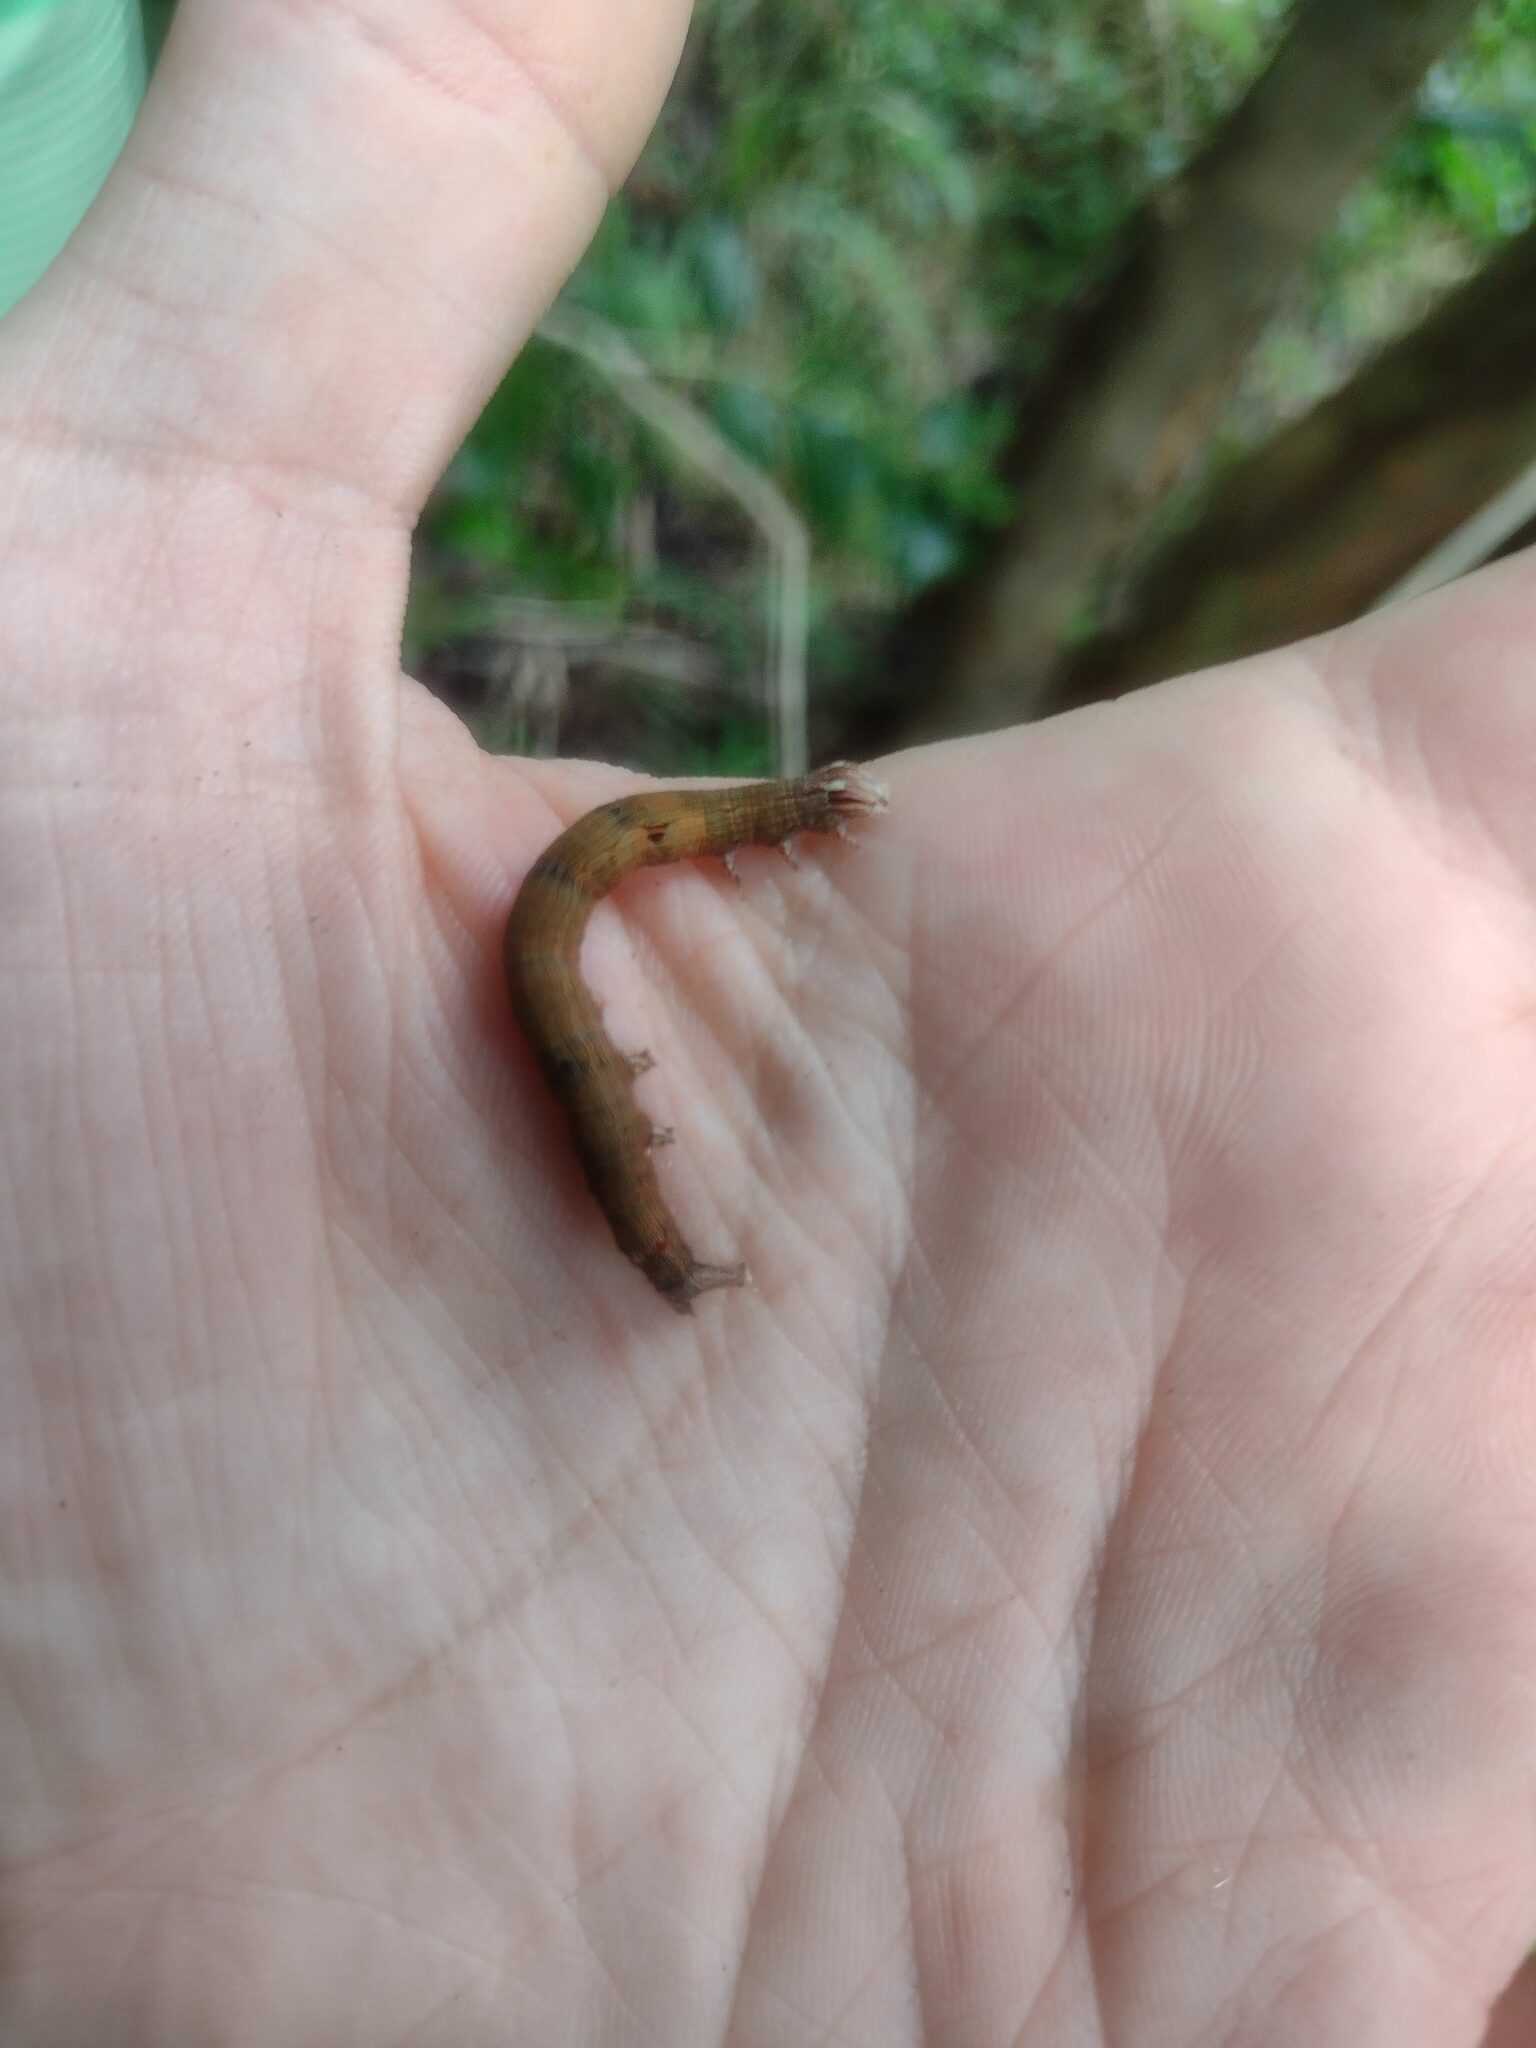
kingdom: Animalia
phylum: Arthropoda
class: Insecta
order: Lepidoptera
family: Erebidae
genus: Ophiusa
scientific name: Ophiusa disjungens
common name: Moth
